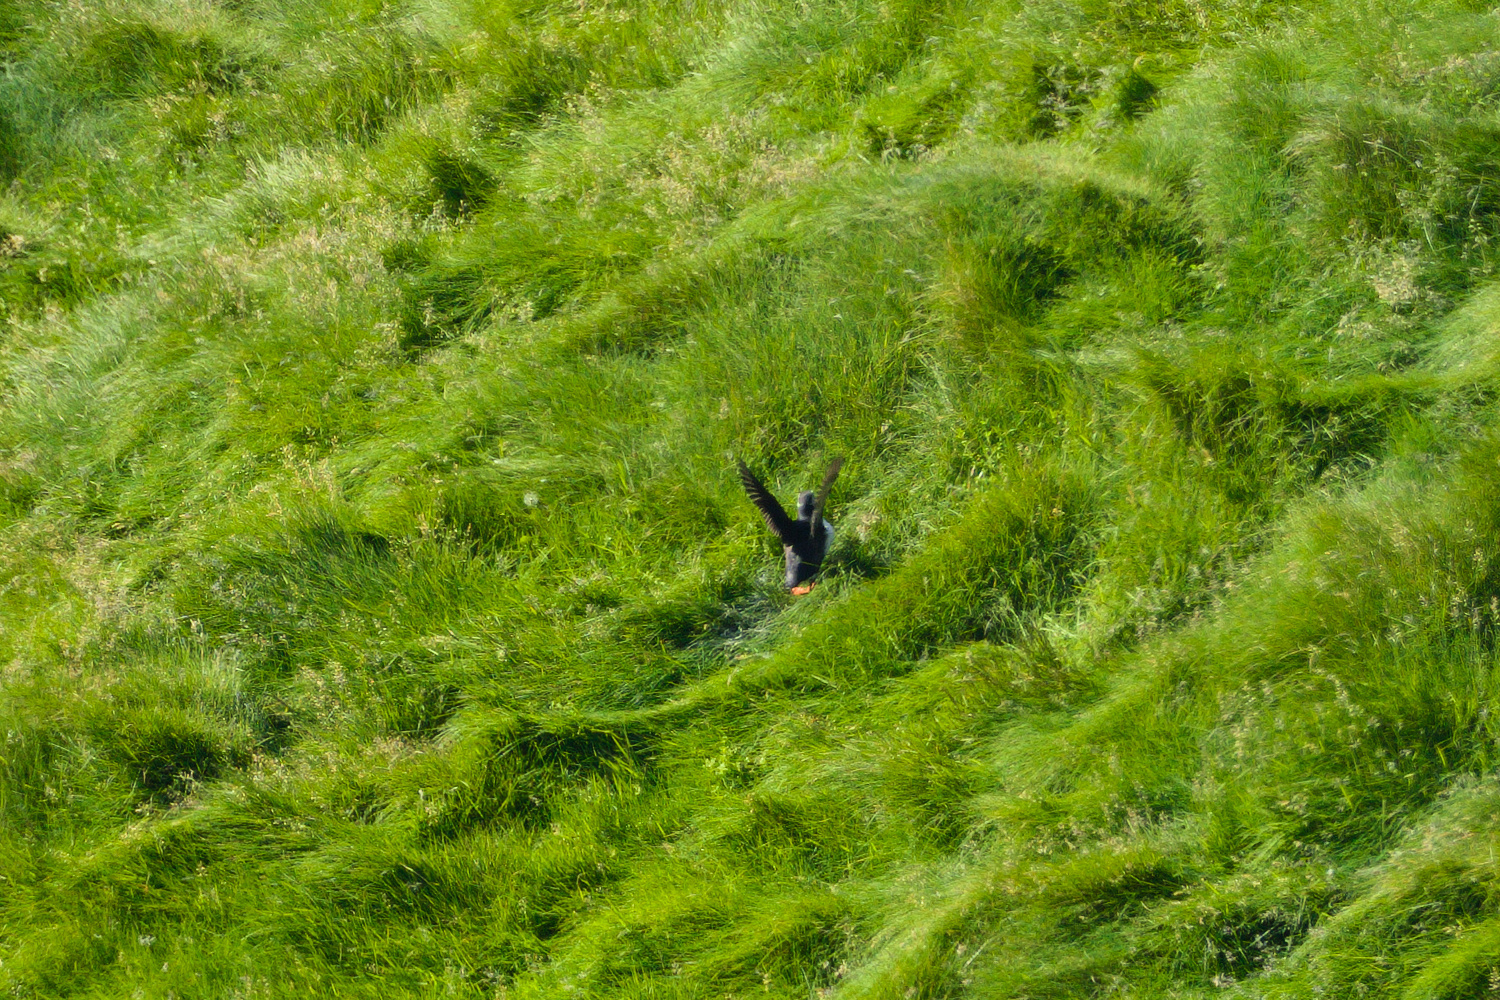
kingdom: Animalia
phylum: Chordata
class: Aves
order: Charadriiformes
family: Alcidae
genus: Fratercula
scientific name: Fratercula arctica
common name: Atlantic puffin
